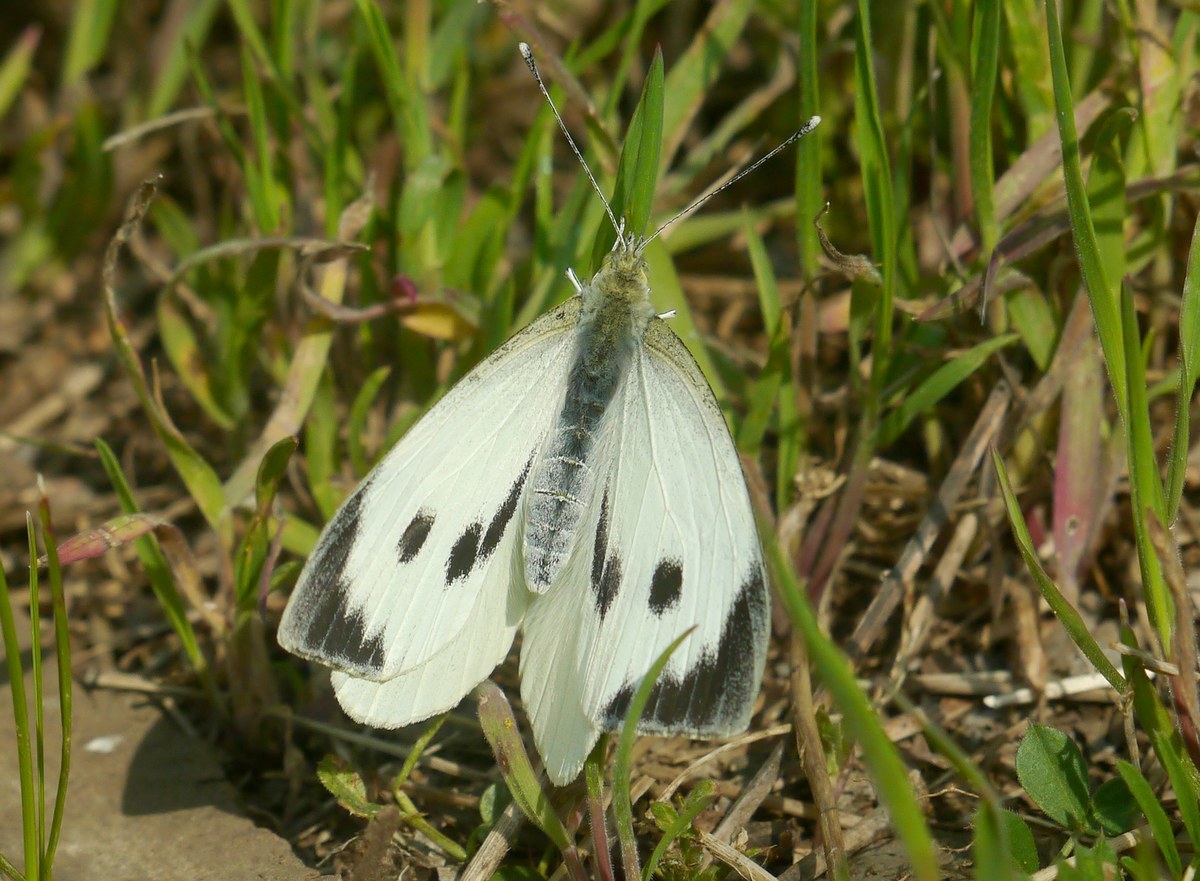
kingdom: Animalia
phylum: Arthropoda
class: Insecta
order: Lepidoptera
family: Pieridae
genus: Pieris
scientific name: Pieris brassicae
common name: Large white
